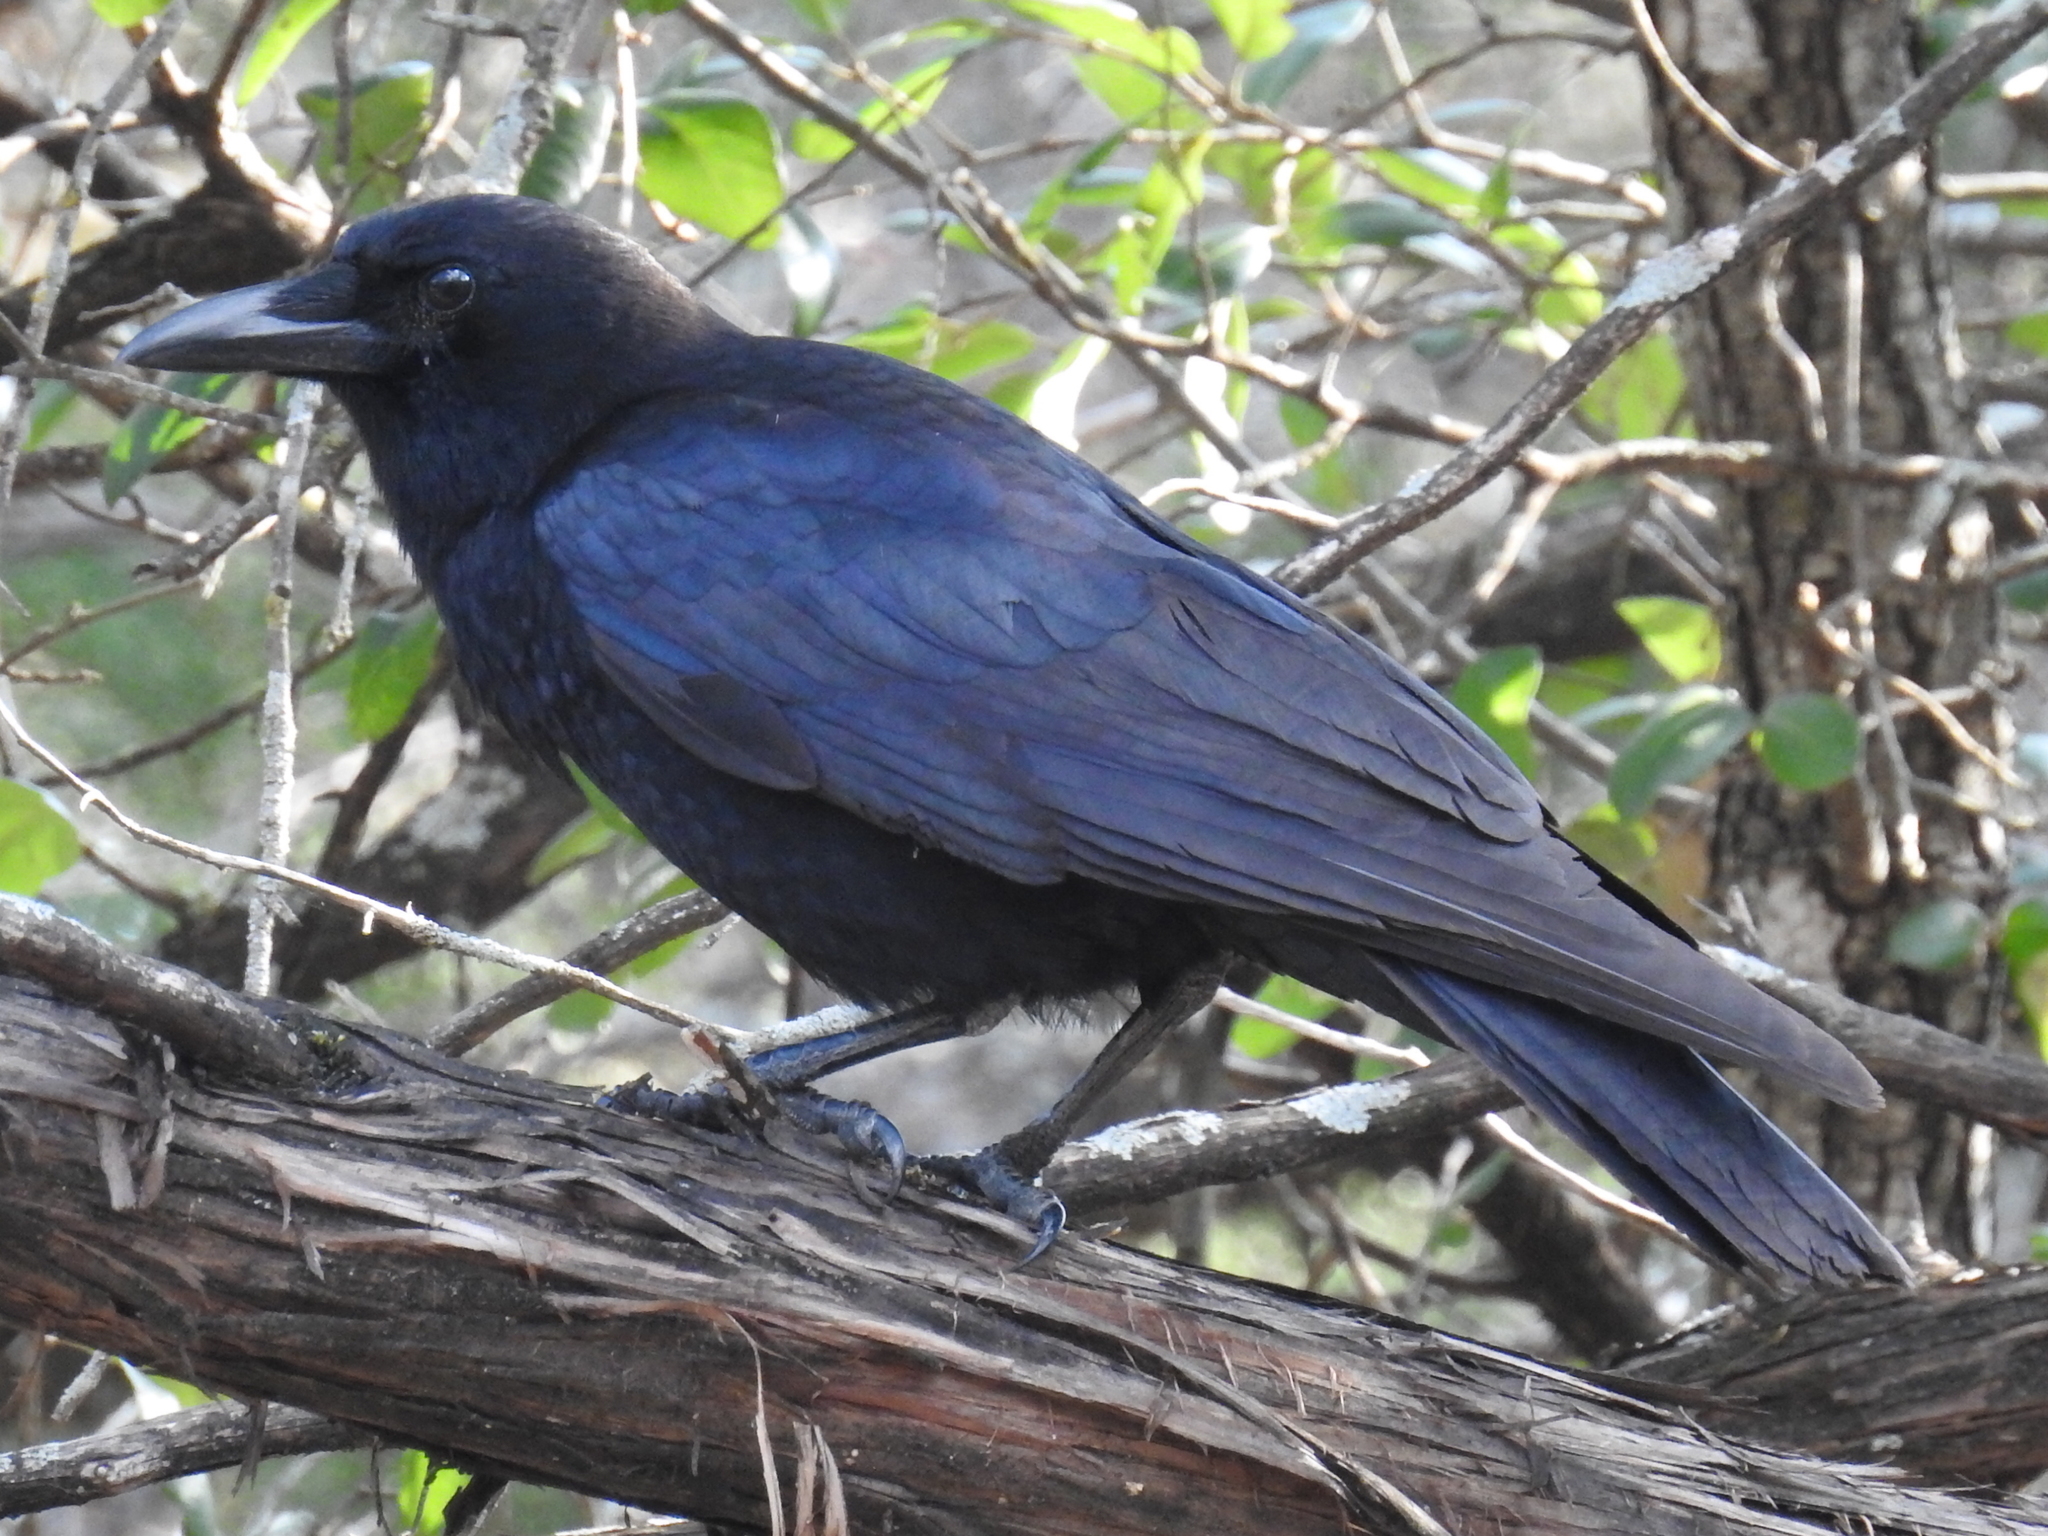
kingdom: Animalia
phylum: Chordata
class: Aves
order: Passeriformes
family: Corvidae
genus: Corvus
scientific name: Corvus brachyrhynchos
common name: American crow
